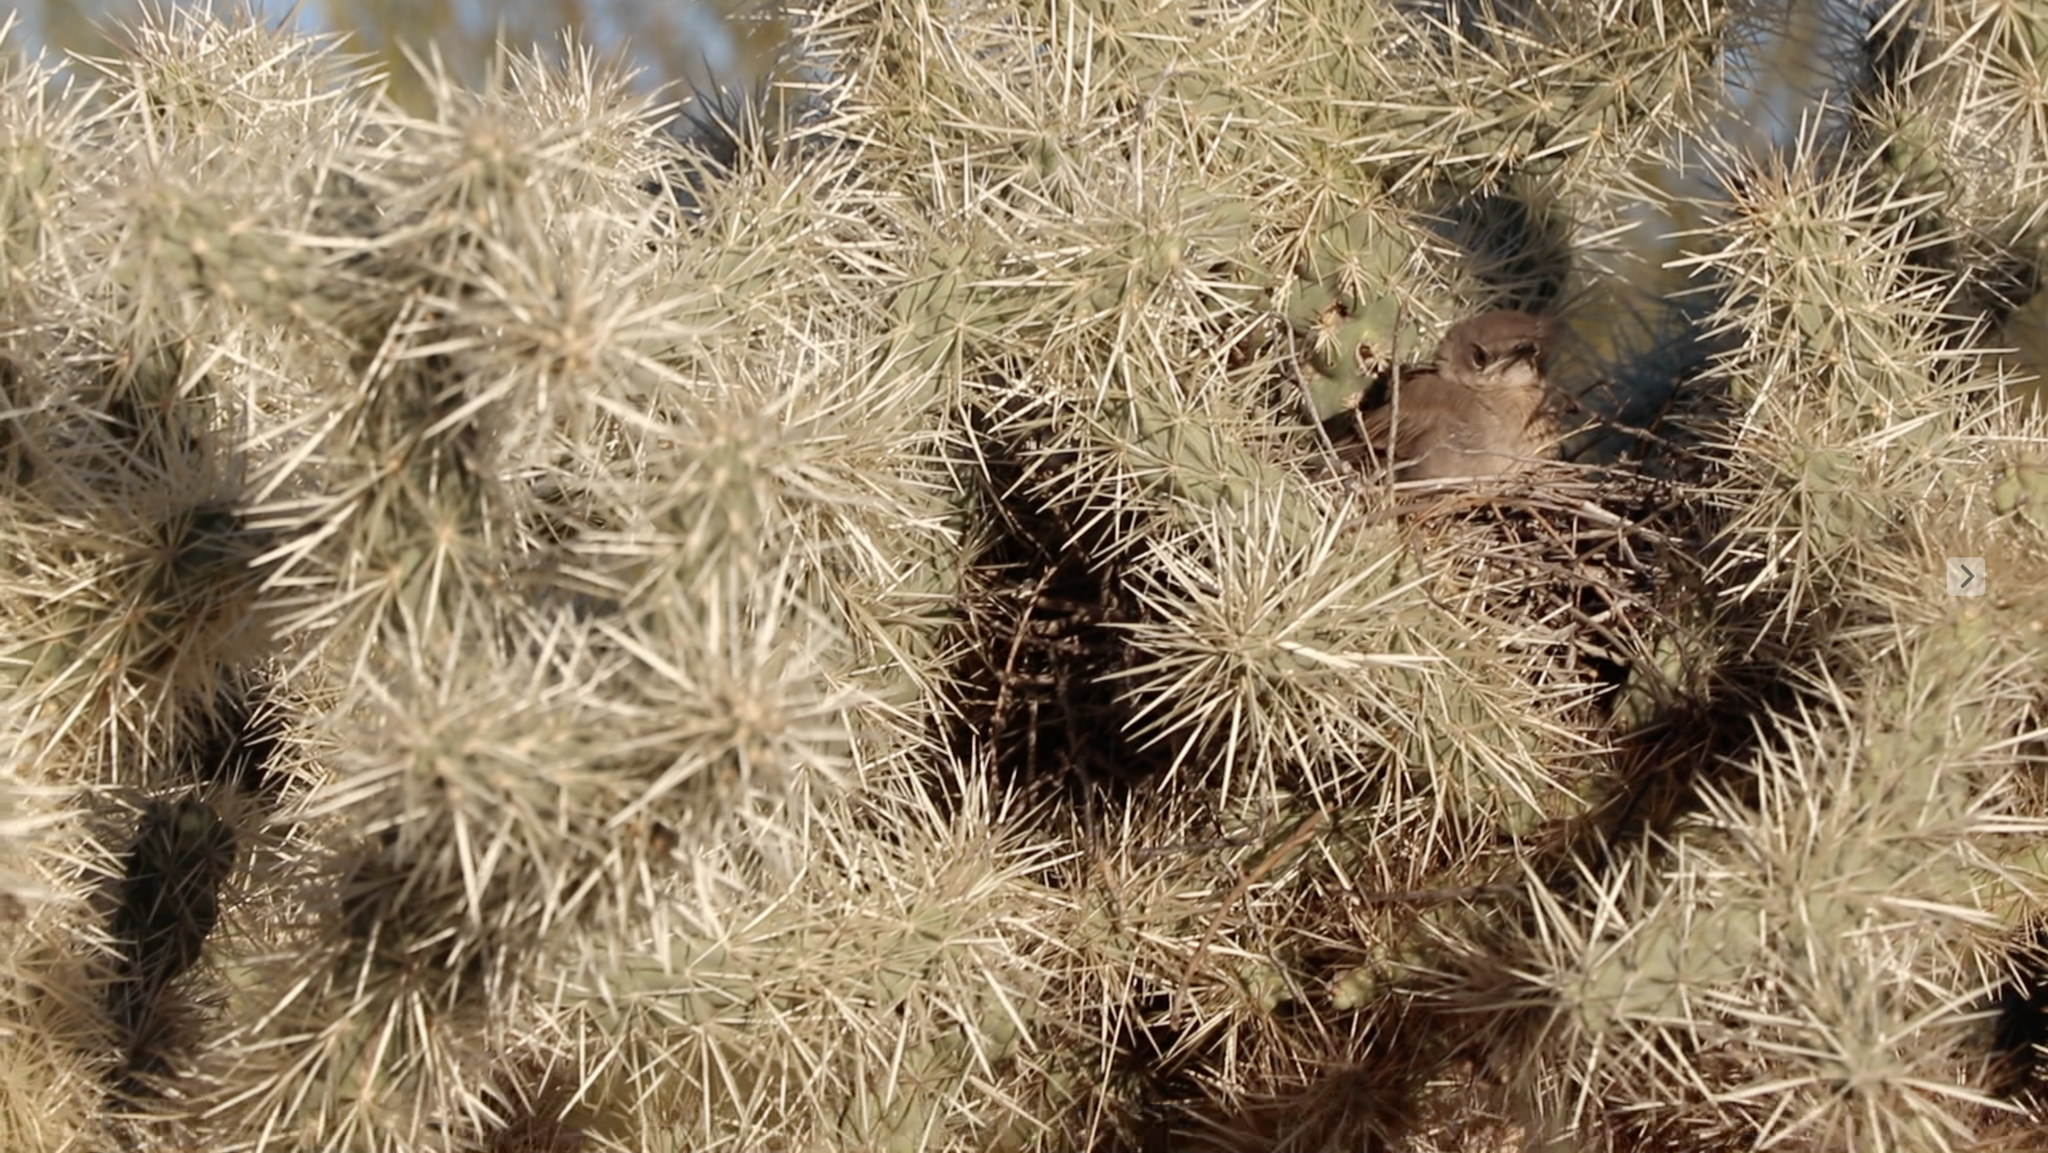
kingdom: Animalia
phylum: Chordata
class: Aves
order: Passeriformes
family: Mimidae
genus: Toxostoma
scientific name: Toxostoma curvirostre
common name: Curve-billed thrasher
